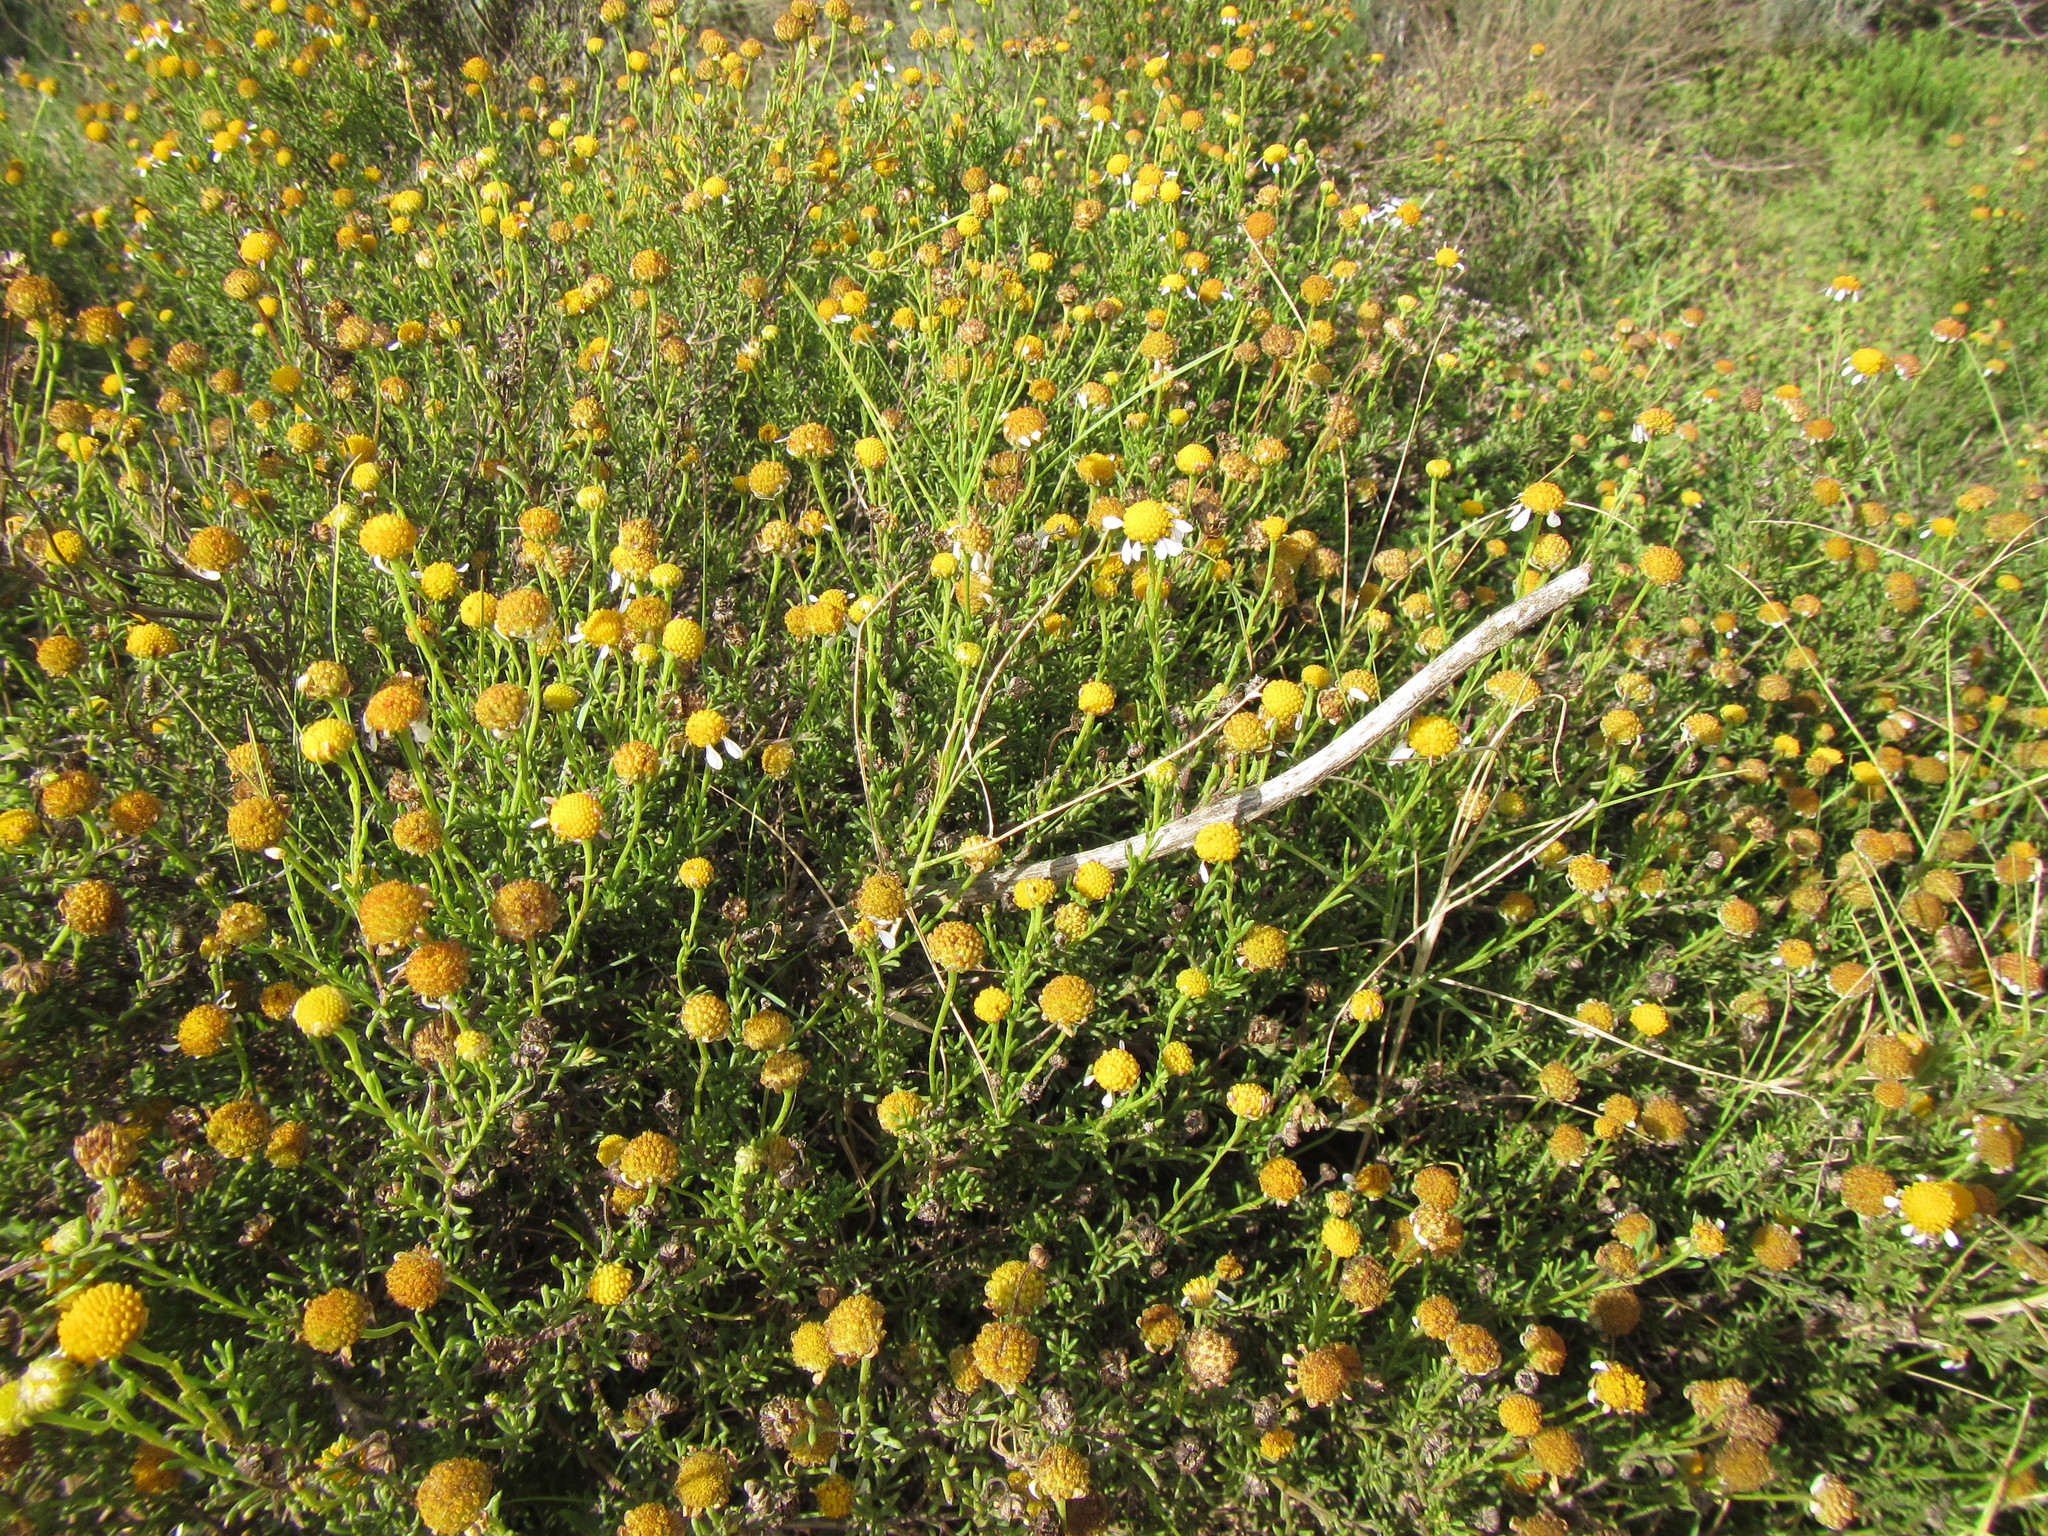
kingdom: Plantae
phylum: Tracheophyta
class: Magnoliopsida
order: Asterales
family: Asteraceae
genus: Cymbopappus
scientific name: Cymbopappus adenosolen
